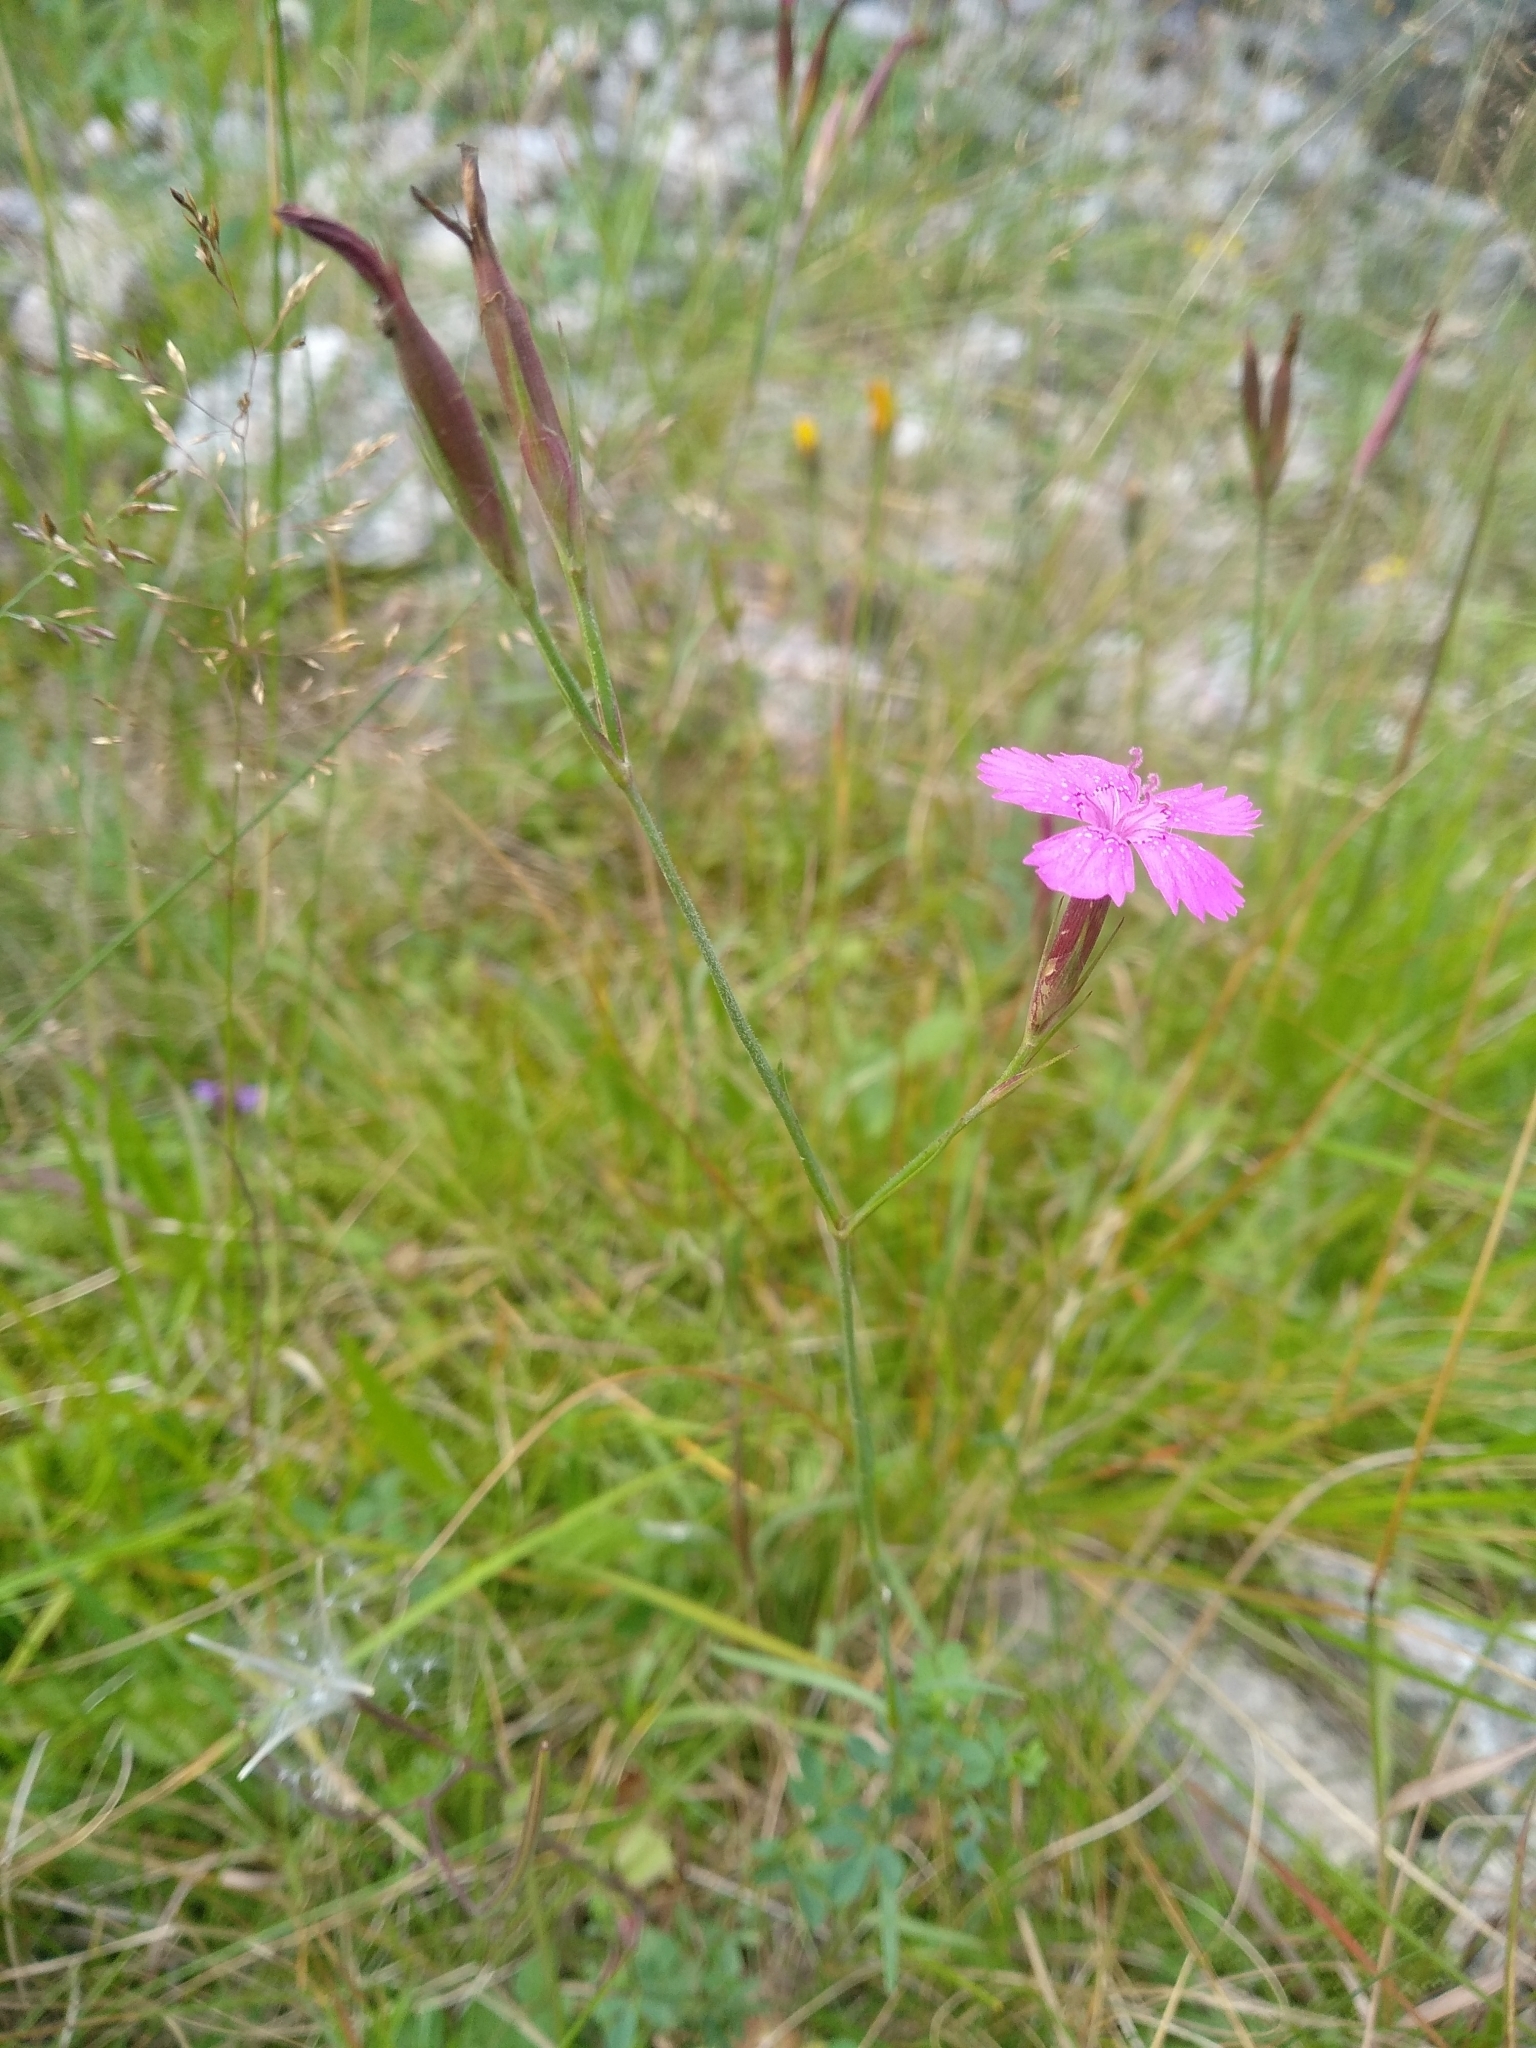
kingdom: Plantae
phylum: Tracheophyta
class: Magnoliopsida
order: Caryophyllales
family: Caryophyllaceae
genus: Dianthus
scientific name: Dianthus deltoides
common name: Maiden pink
